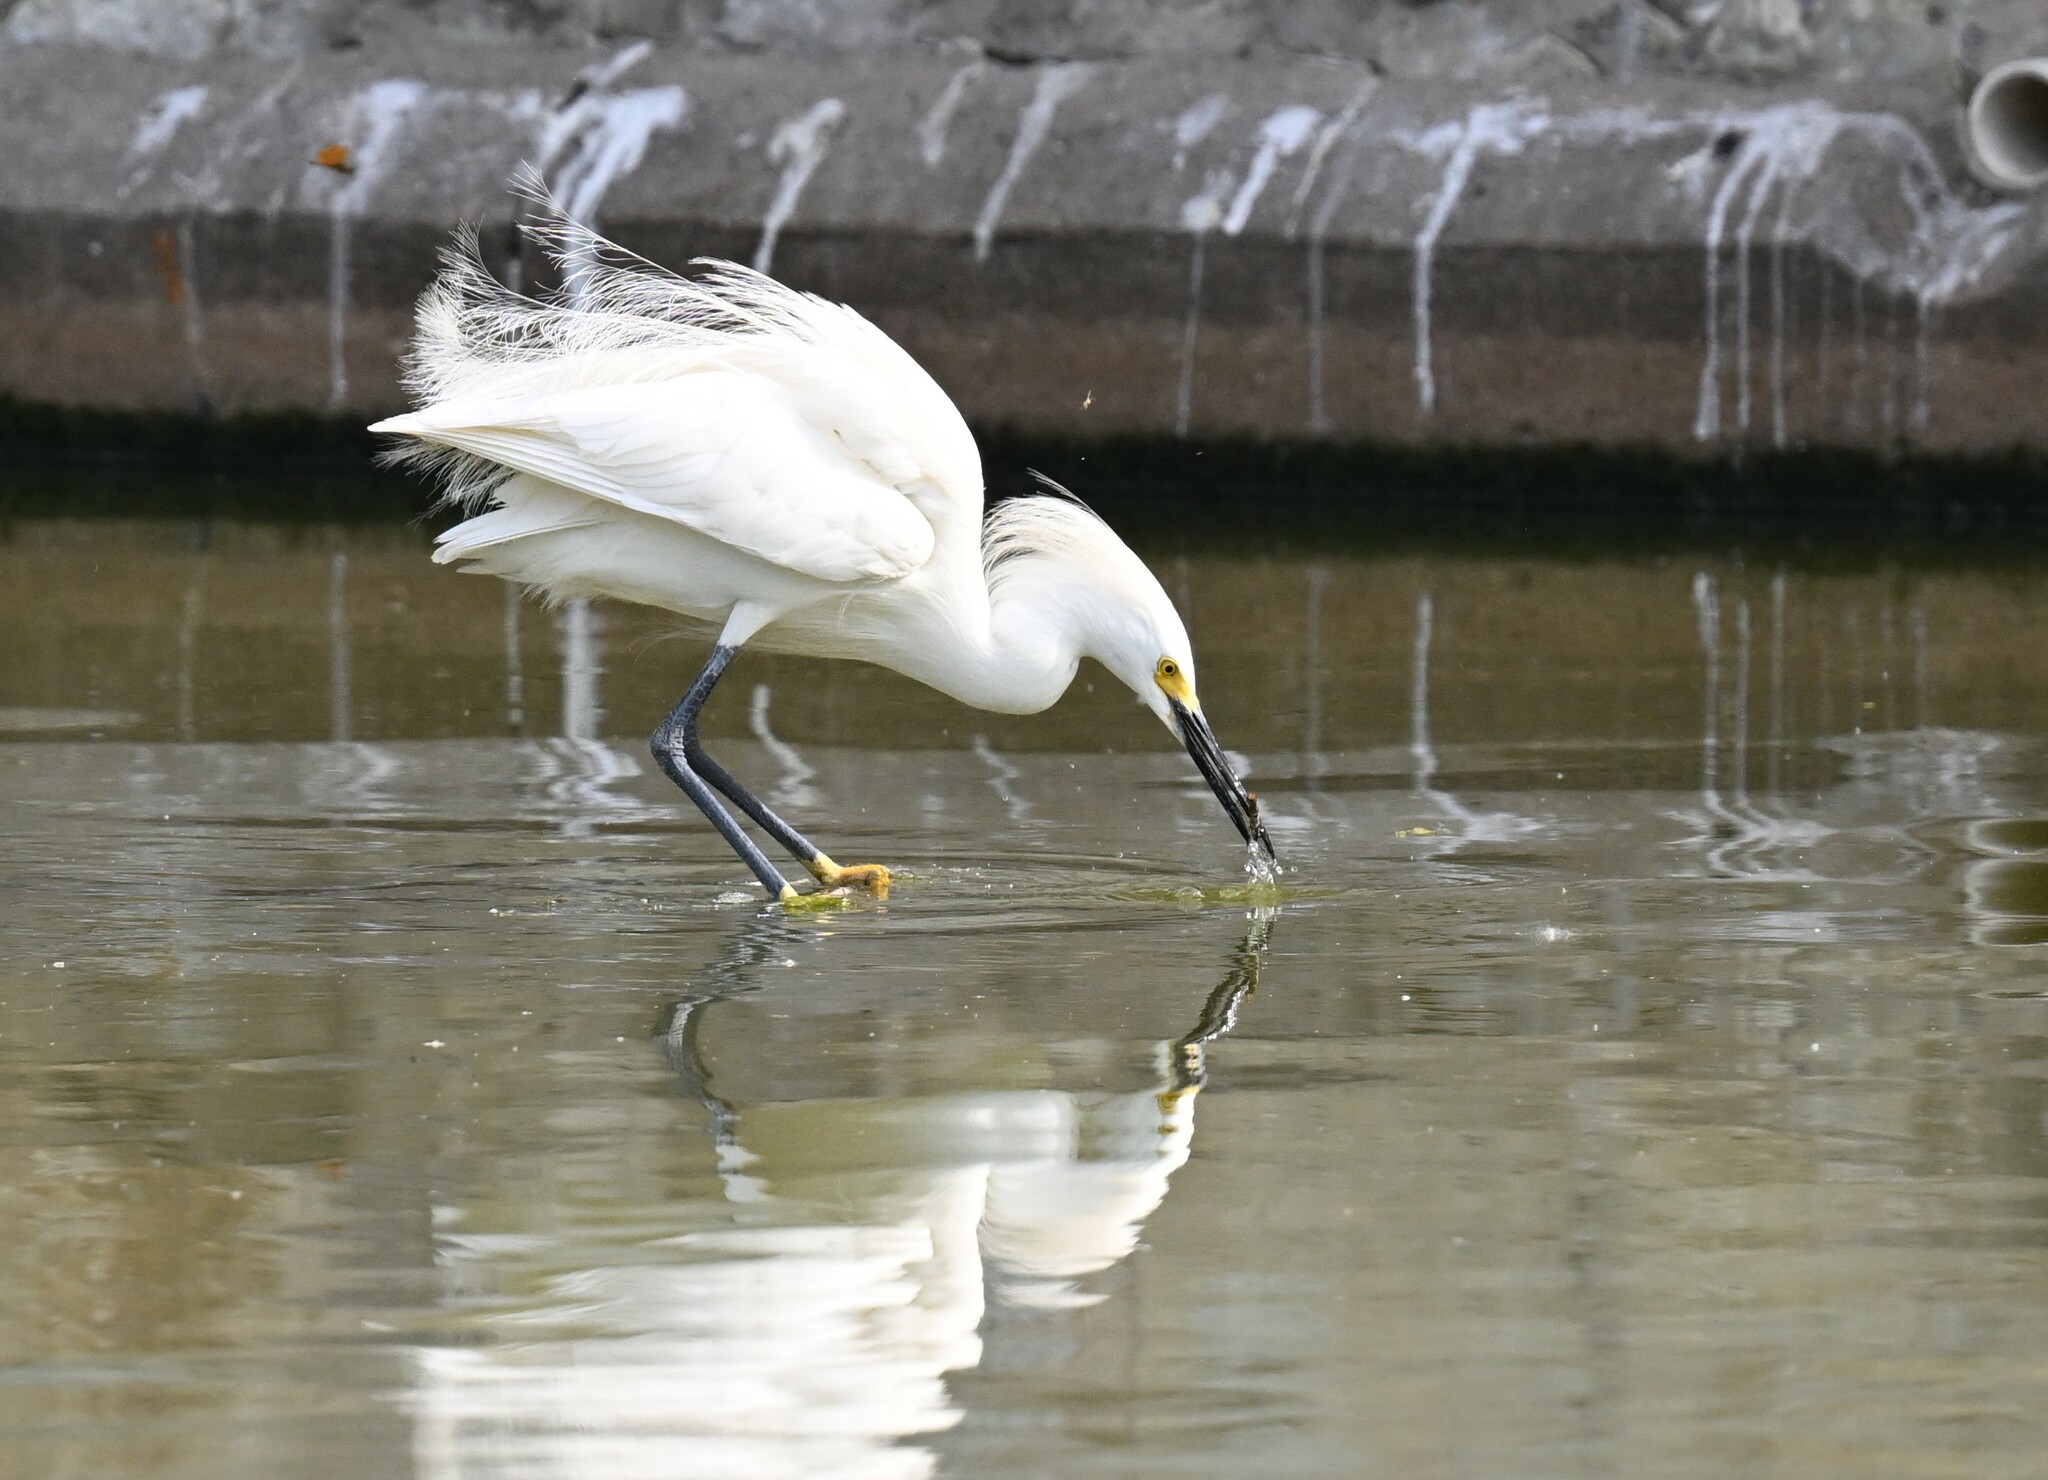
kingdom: Animalia
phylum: Chordata
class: Aves
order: Pelecaniformes
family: Ardeidae
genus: Egretta
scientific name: Egretta thula
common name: Snowy egret
